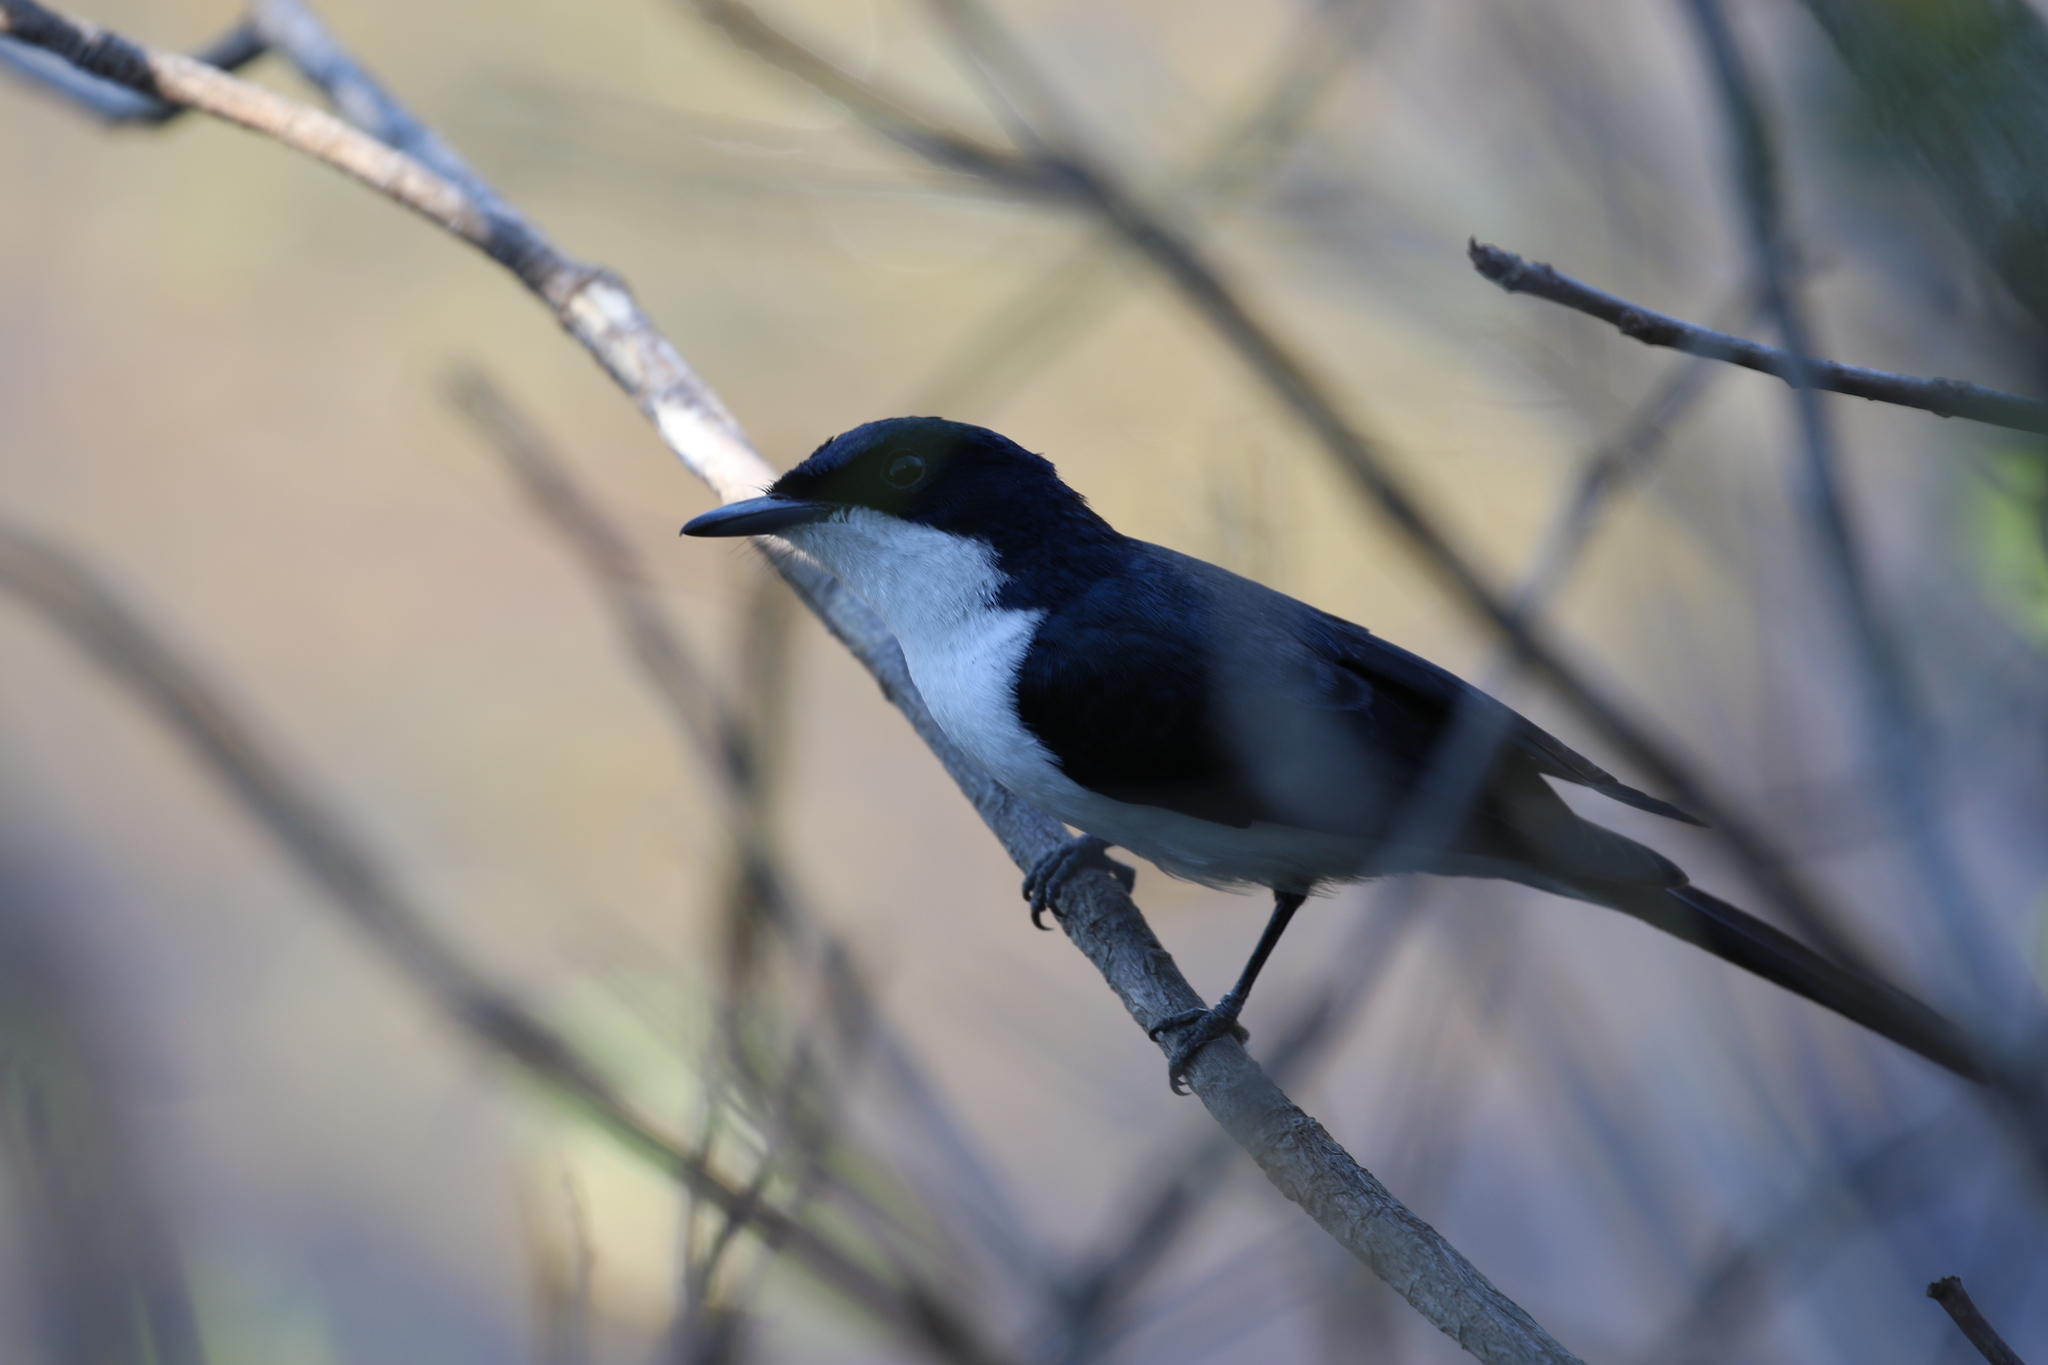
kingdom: Animalia
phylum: Chordata
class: Aves
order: Passeriformes
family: Monarchidae
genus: Myiagra
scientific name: Myiagra nana
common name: Paperbark flycatcher
